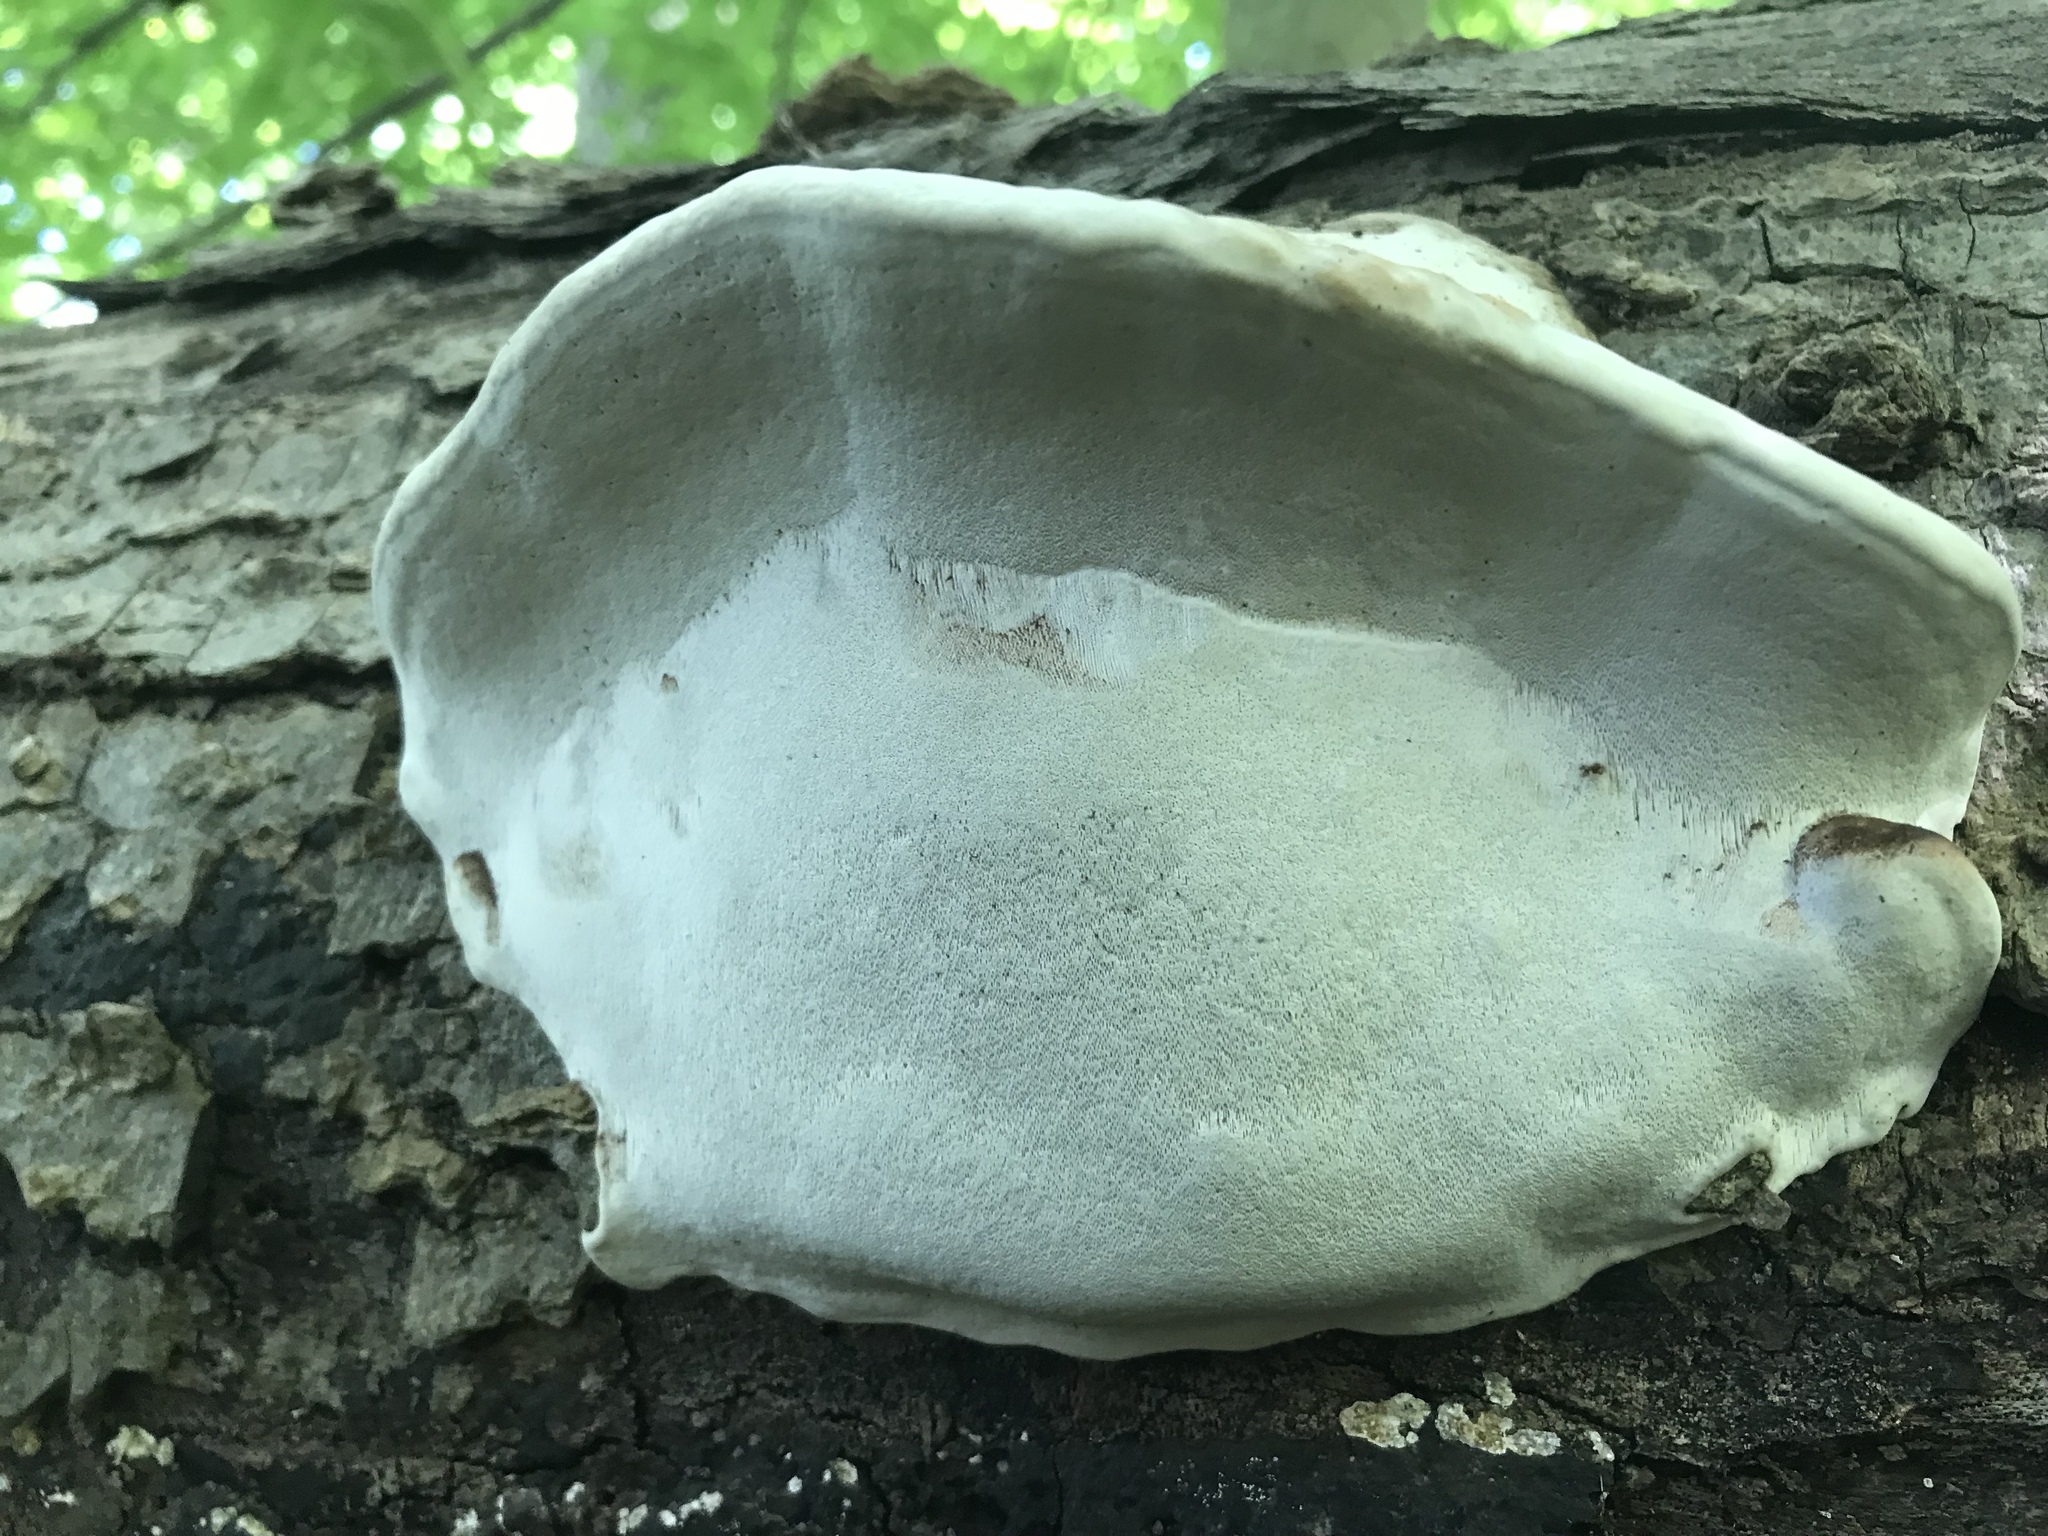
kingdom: Fungi
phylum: Basidiomycota
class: Agaricomycetes
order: Polyporales
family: Polyporaceae
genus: Ganoderma
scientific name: Ganoderma lobatum
